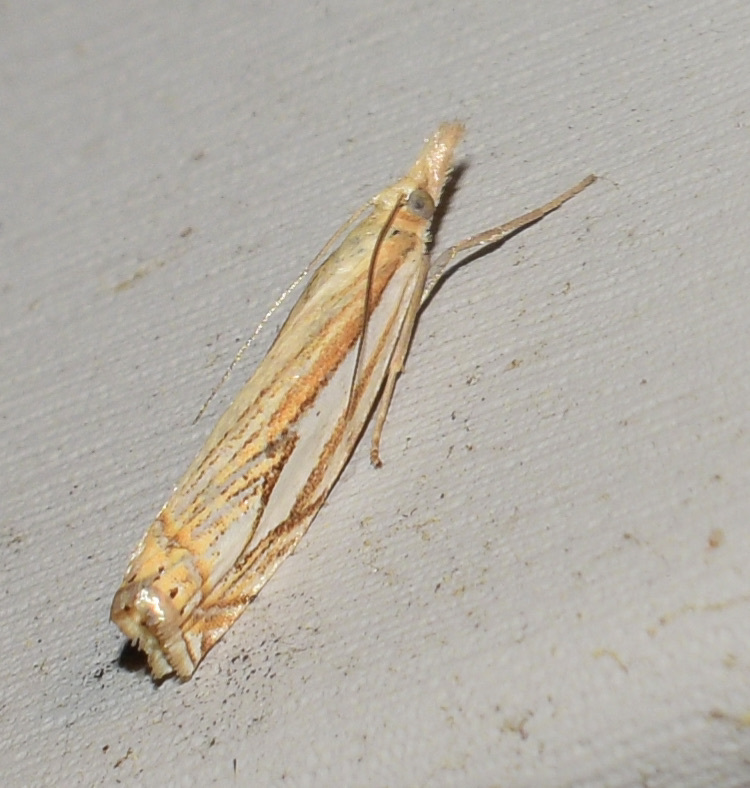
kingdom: Animalia
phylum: Arthropoda
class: Insecta
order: Lepidoptera
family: Crambidae
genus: Crambus
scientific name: Crambus saltuellus
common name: Pasture grass-veneer
